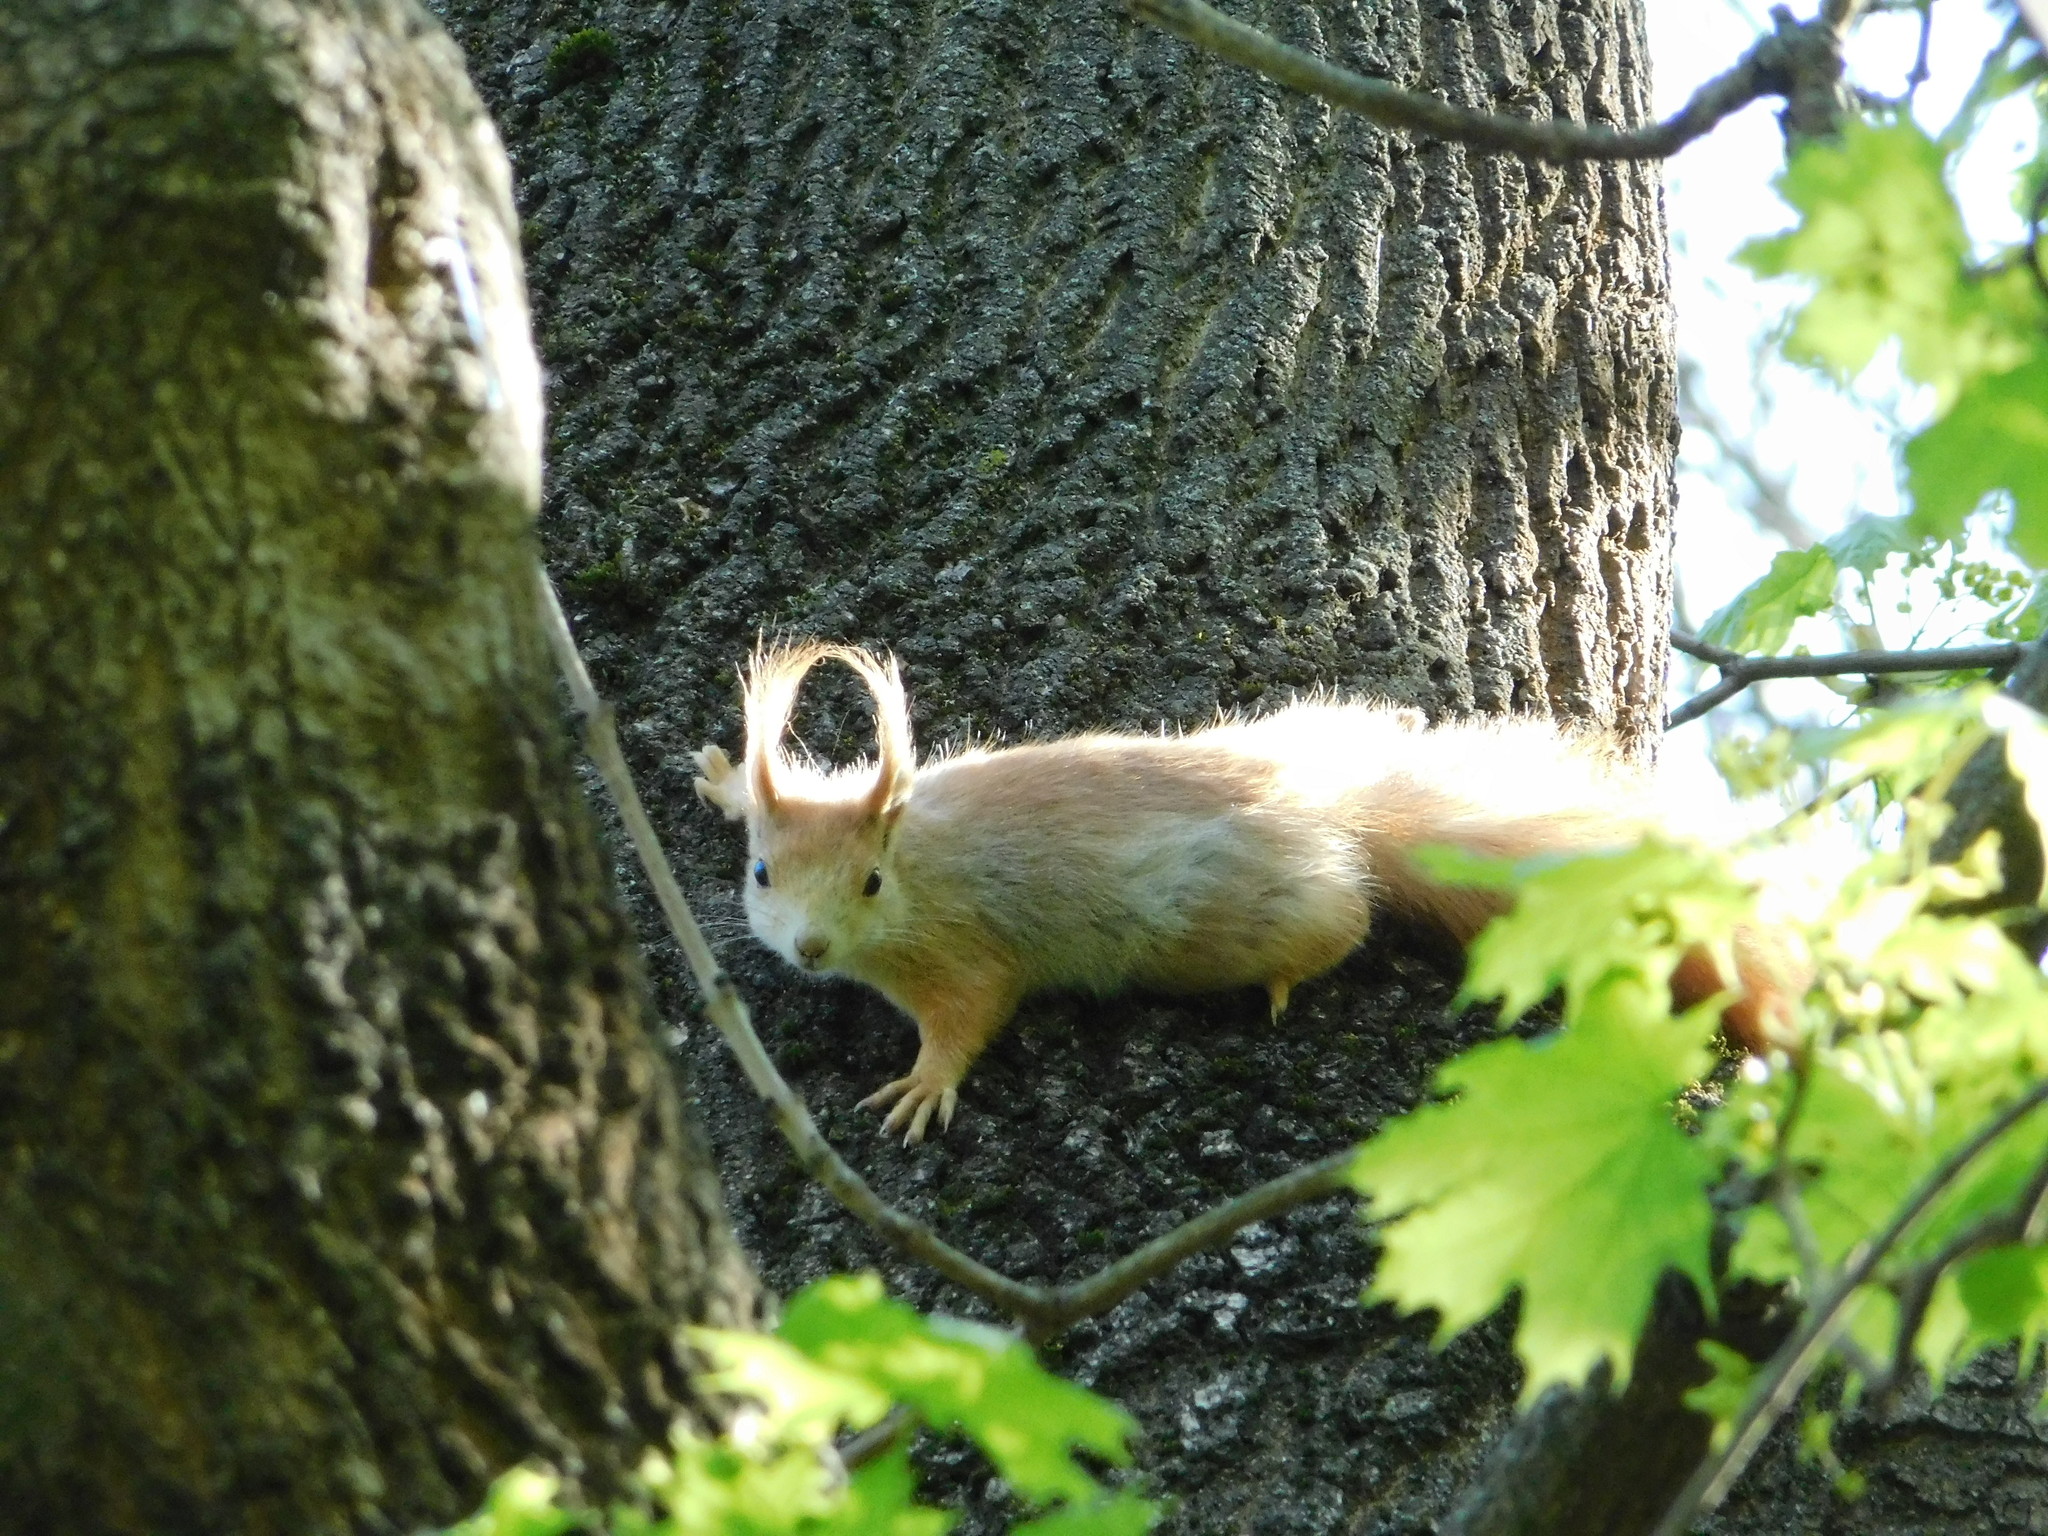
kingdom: Animalia
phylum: Chordata
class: Mammalia
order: Rodentia
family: Sciuridae
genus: Sciurus
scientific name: Sciurus vulgaris
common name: Eurasian red squirrel
